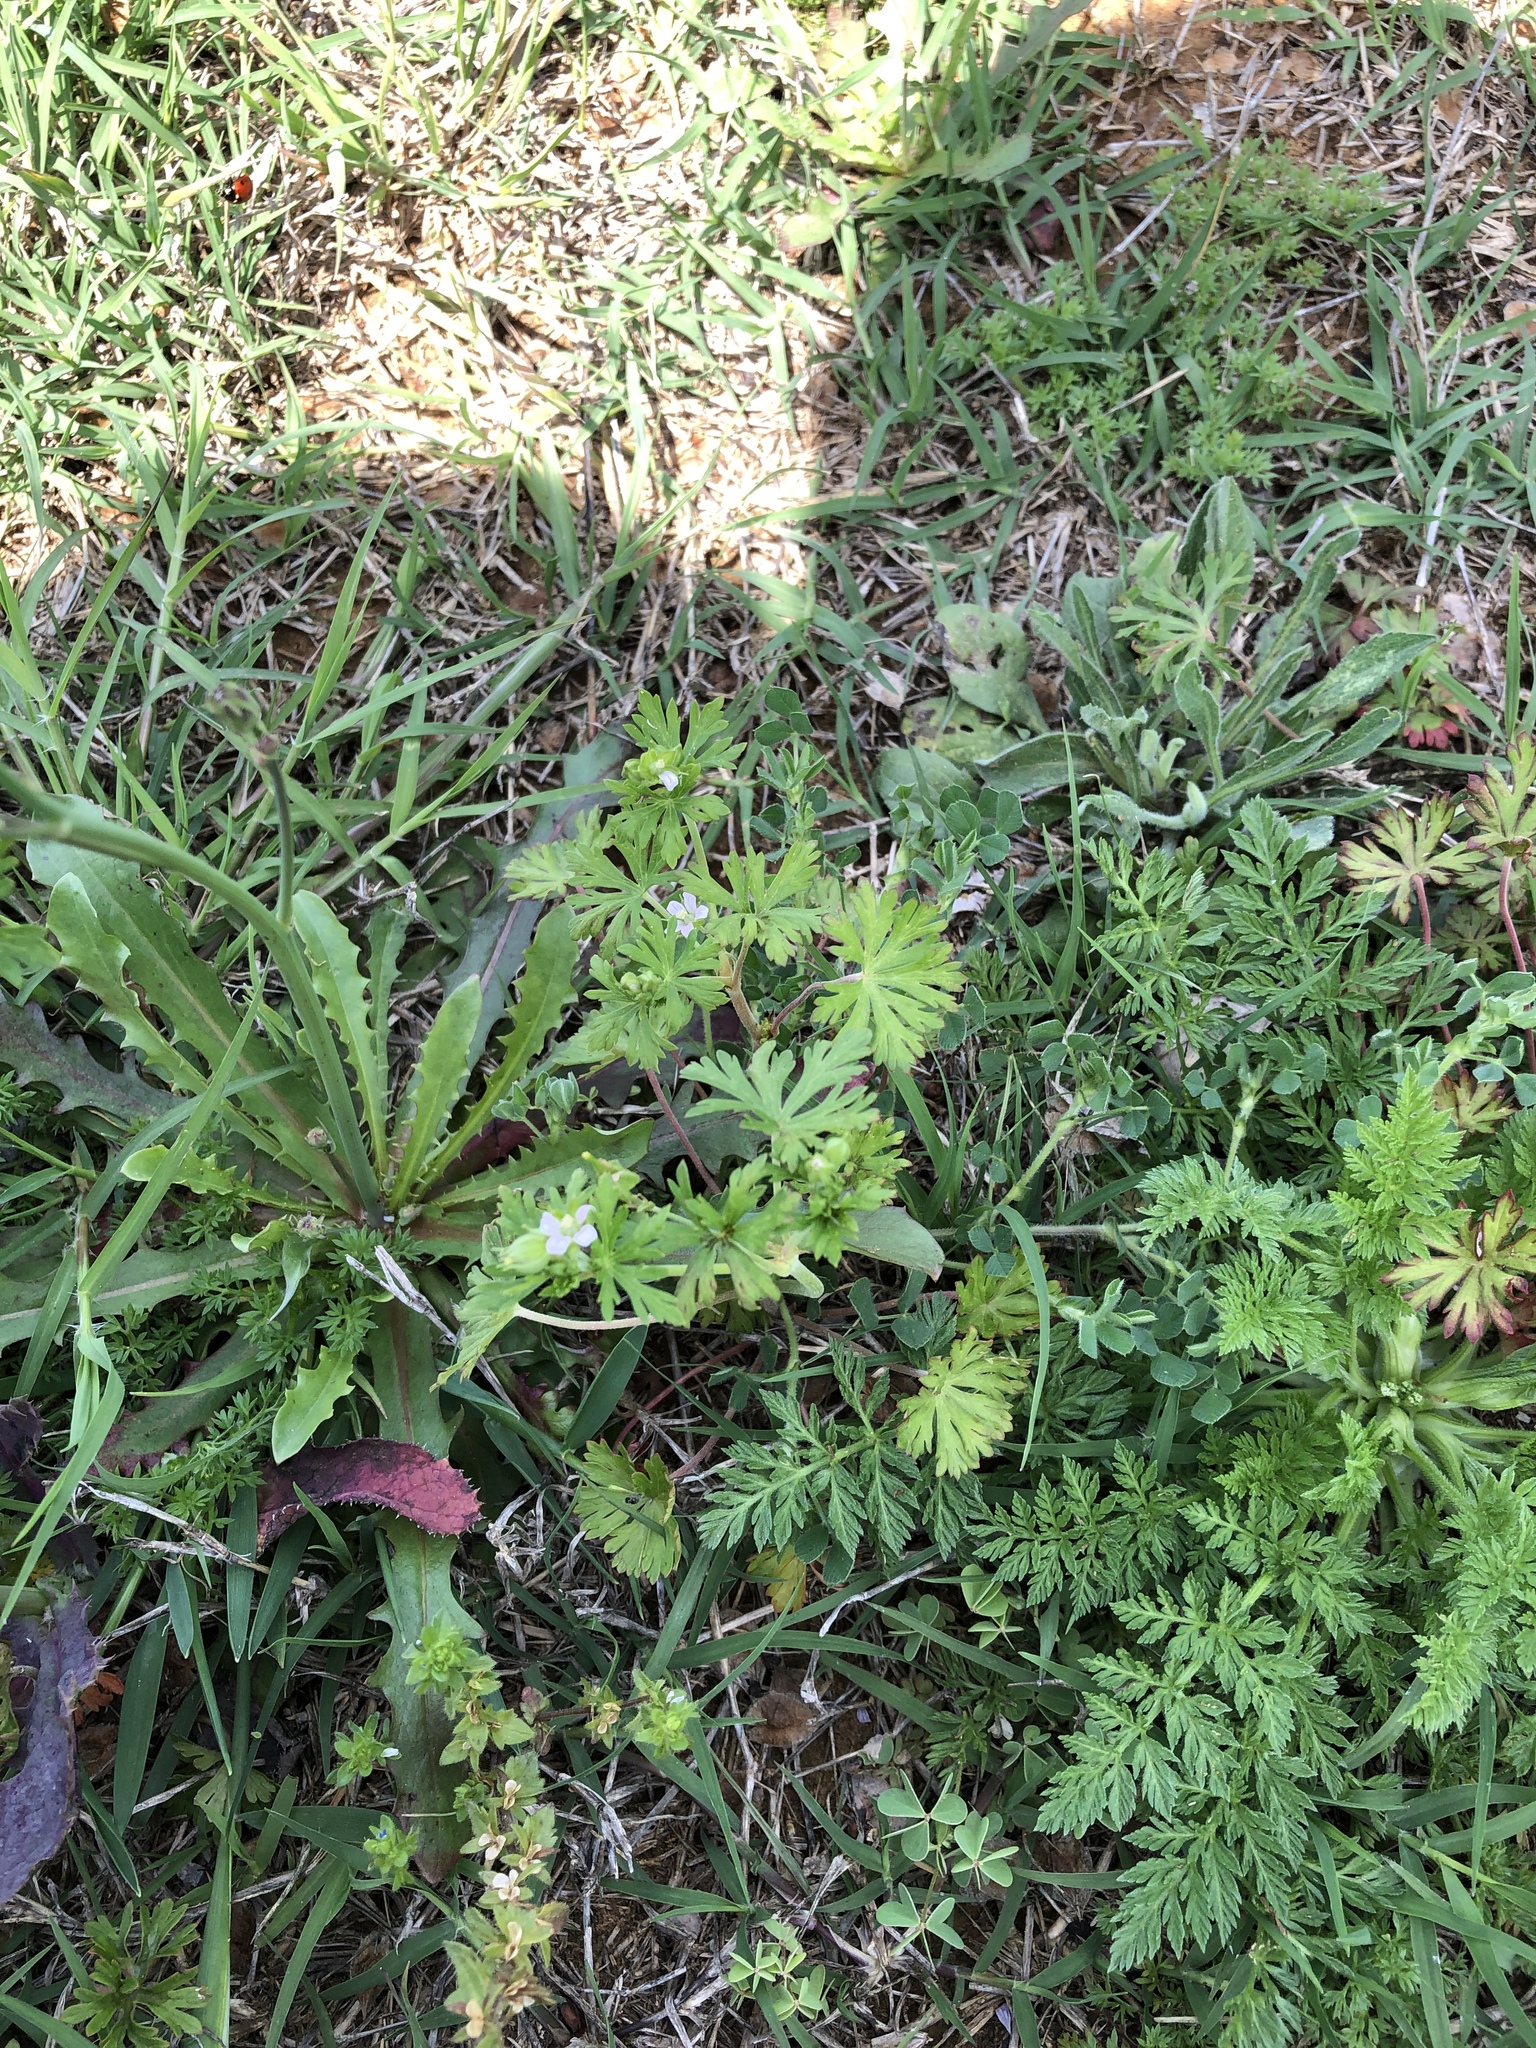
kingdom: Plantae
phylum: Tracheophyta
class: Magnoliopsida
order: Geraniales
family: Geraniaceae
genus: Geranium
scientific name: Geranium carolinianum
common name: Carolina crane's-bill
